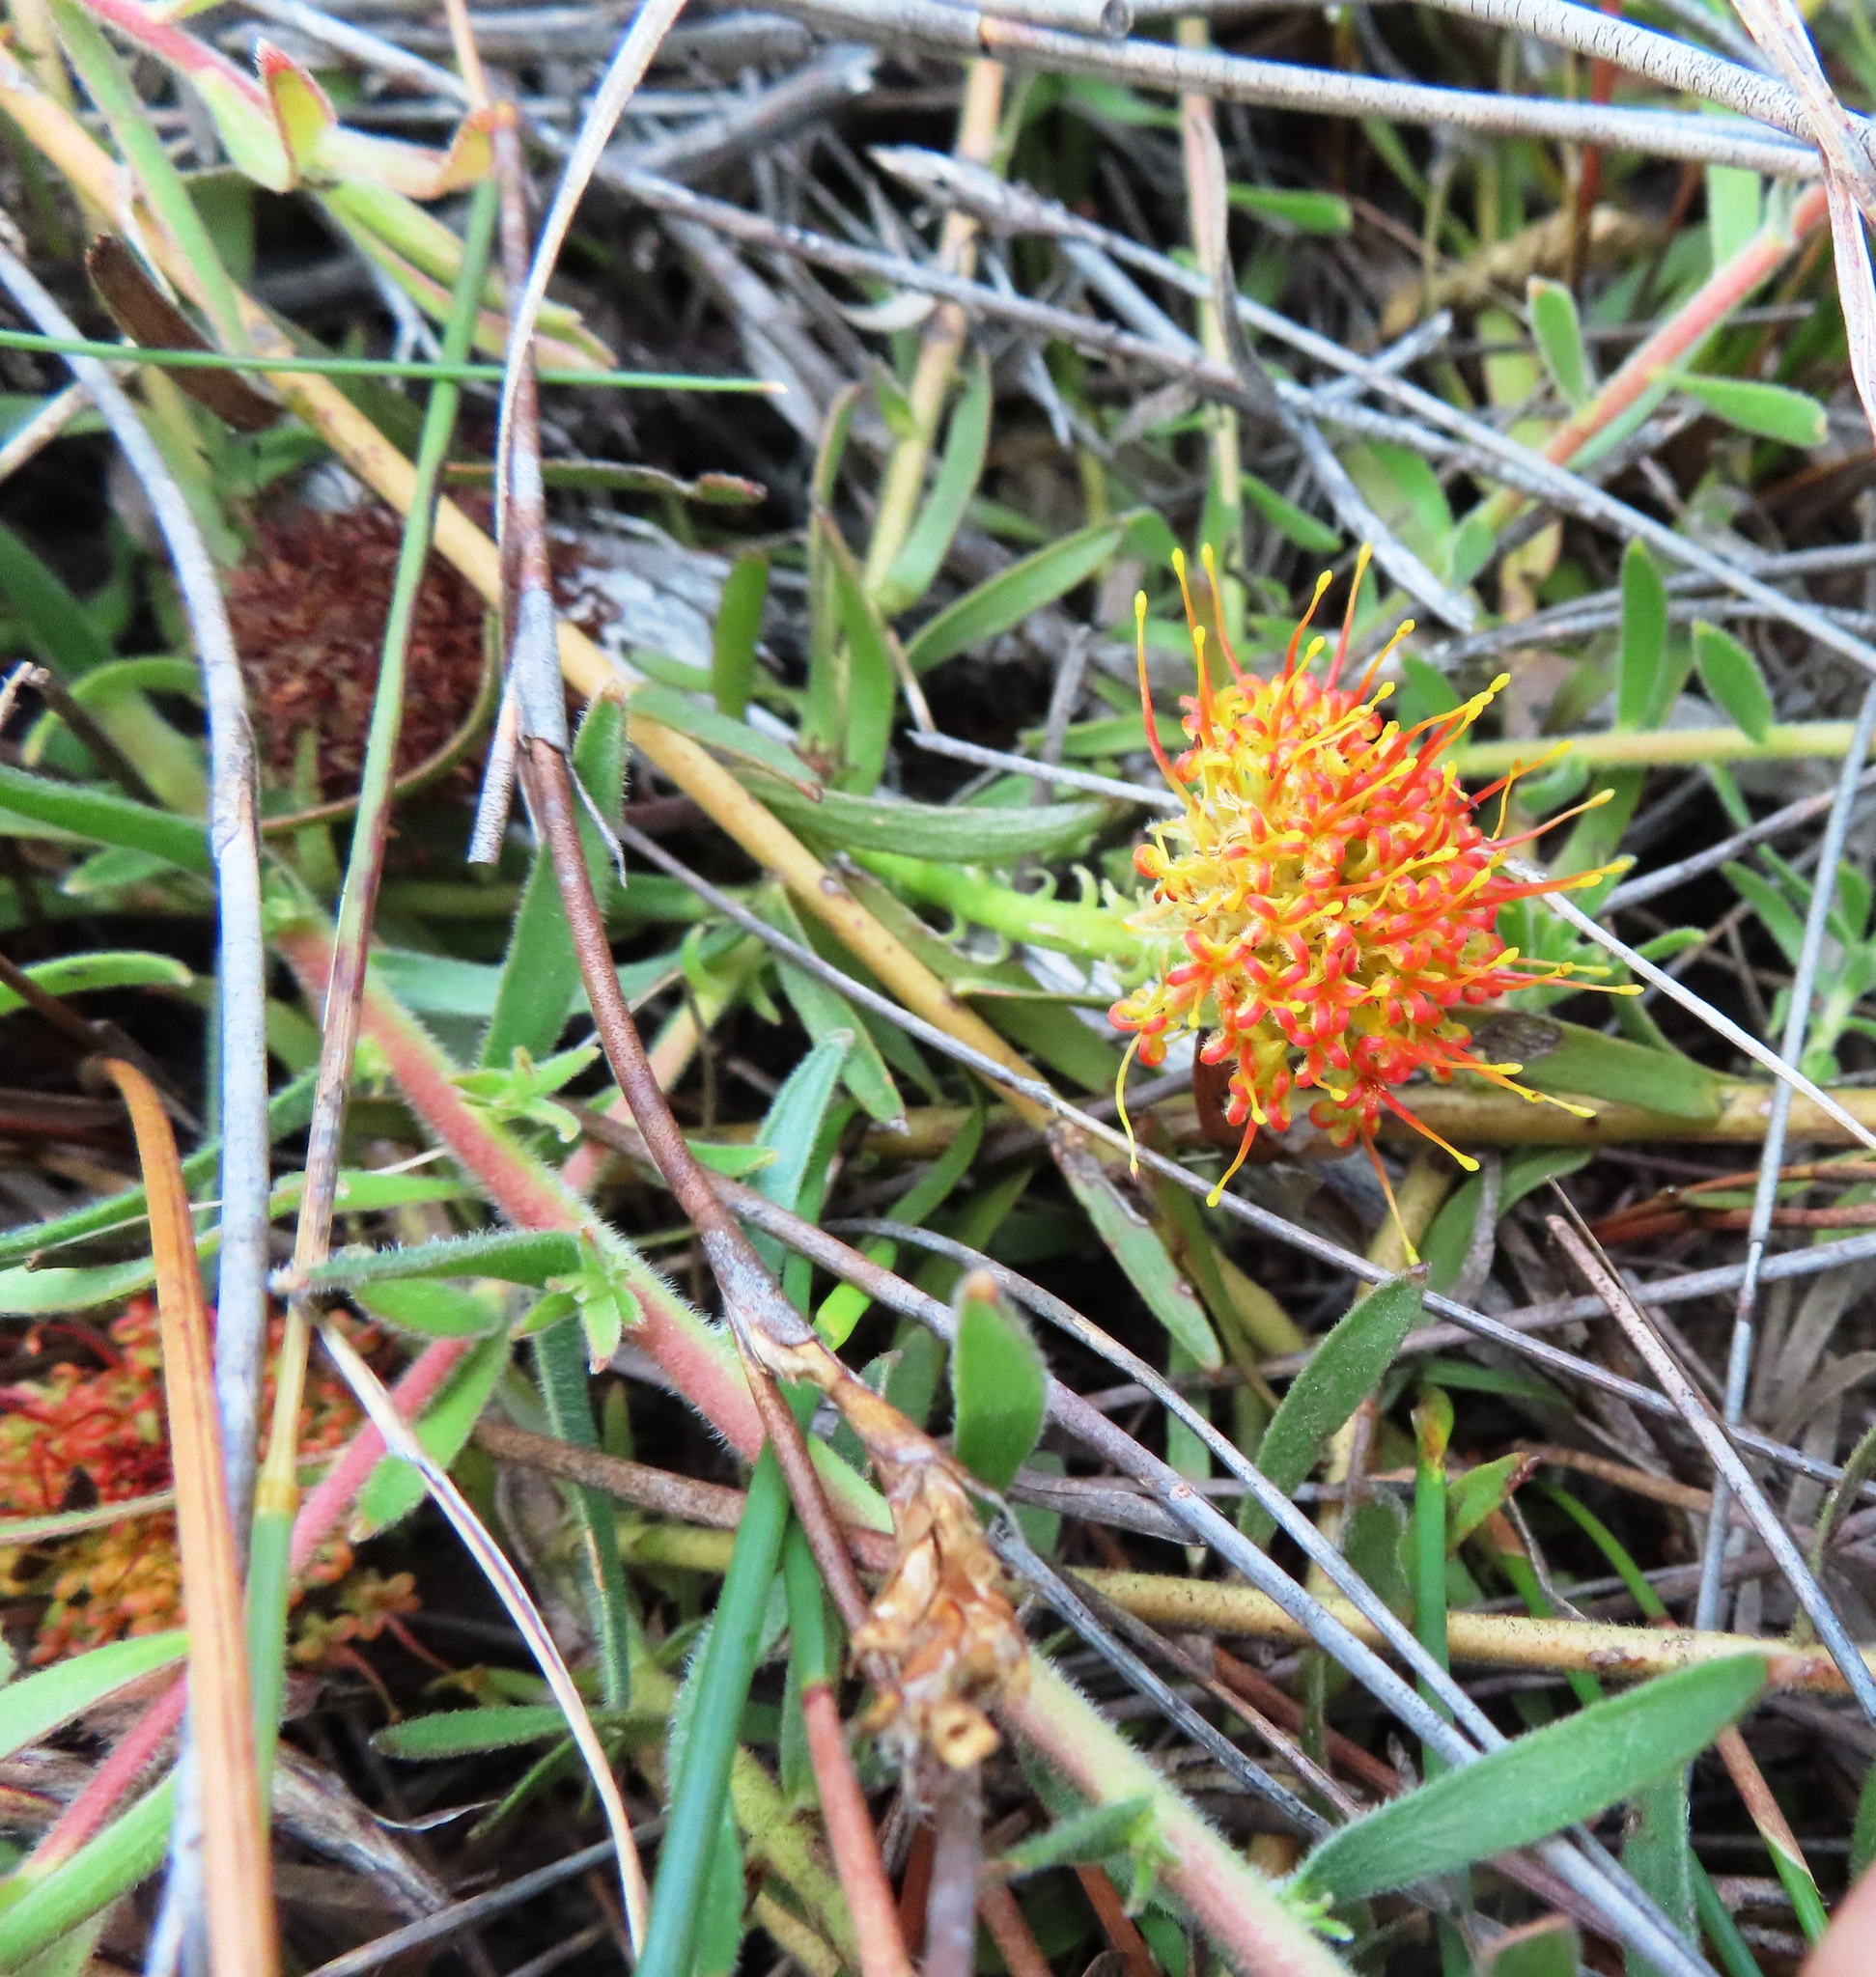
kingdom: Plantae
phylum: Tracheophyta
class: Magnoliopsida
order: Proteales
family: Proteaceae
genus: Leucospermum
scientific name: Leucospermum prostratum
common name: Yellow-trailing pincushion
